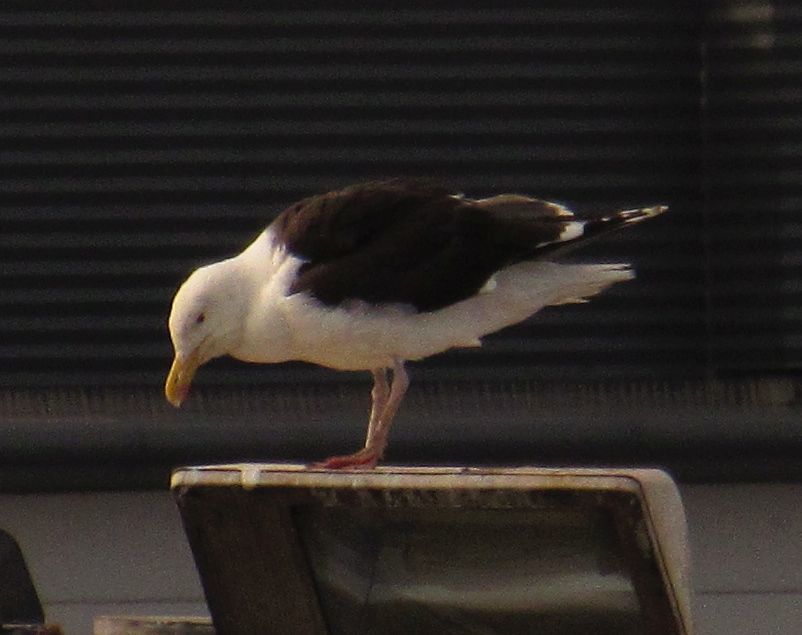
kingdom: Animalia
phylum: Chordata
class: Aves
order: Charadriiformes
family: Laridae
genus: Larus
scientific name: Larus marinus
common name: Great black-backed gull
